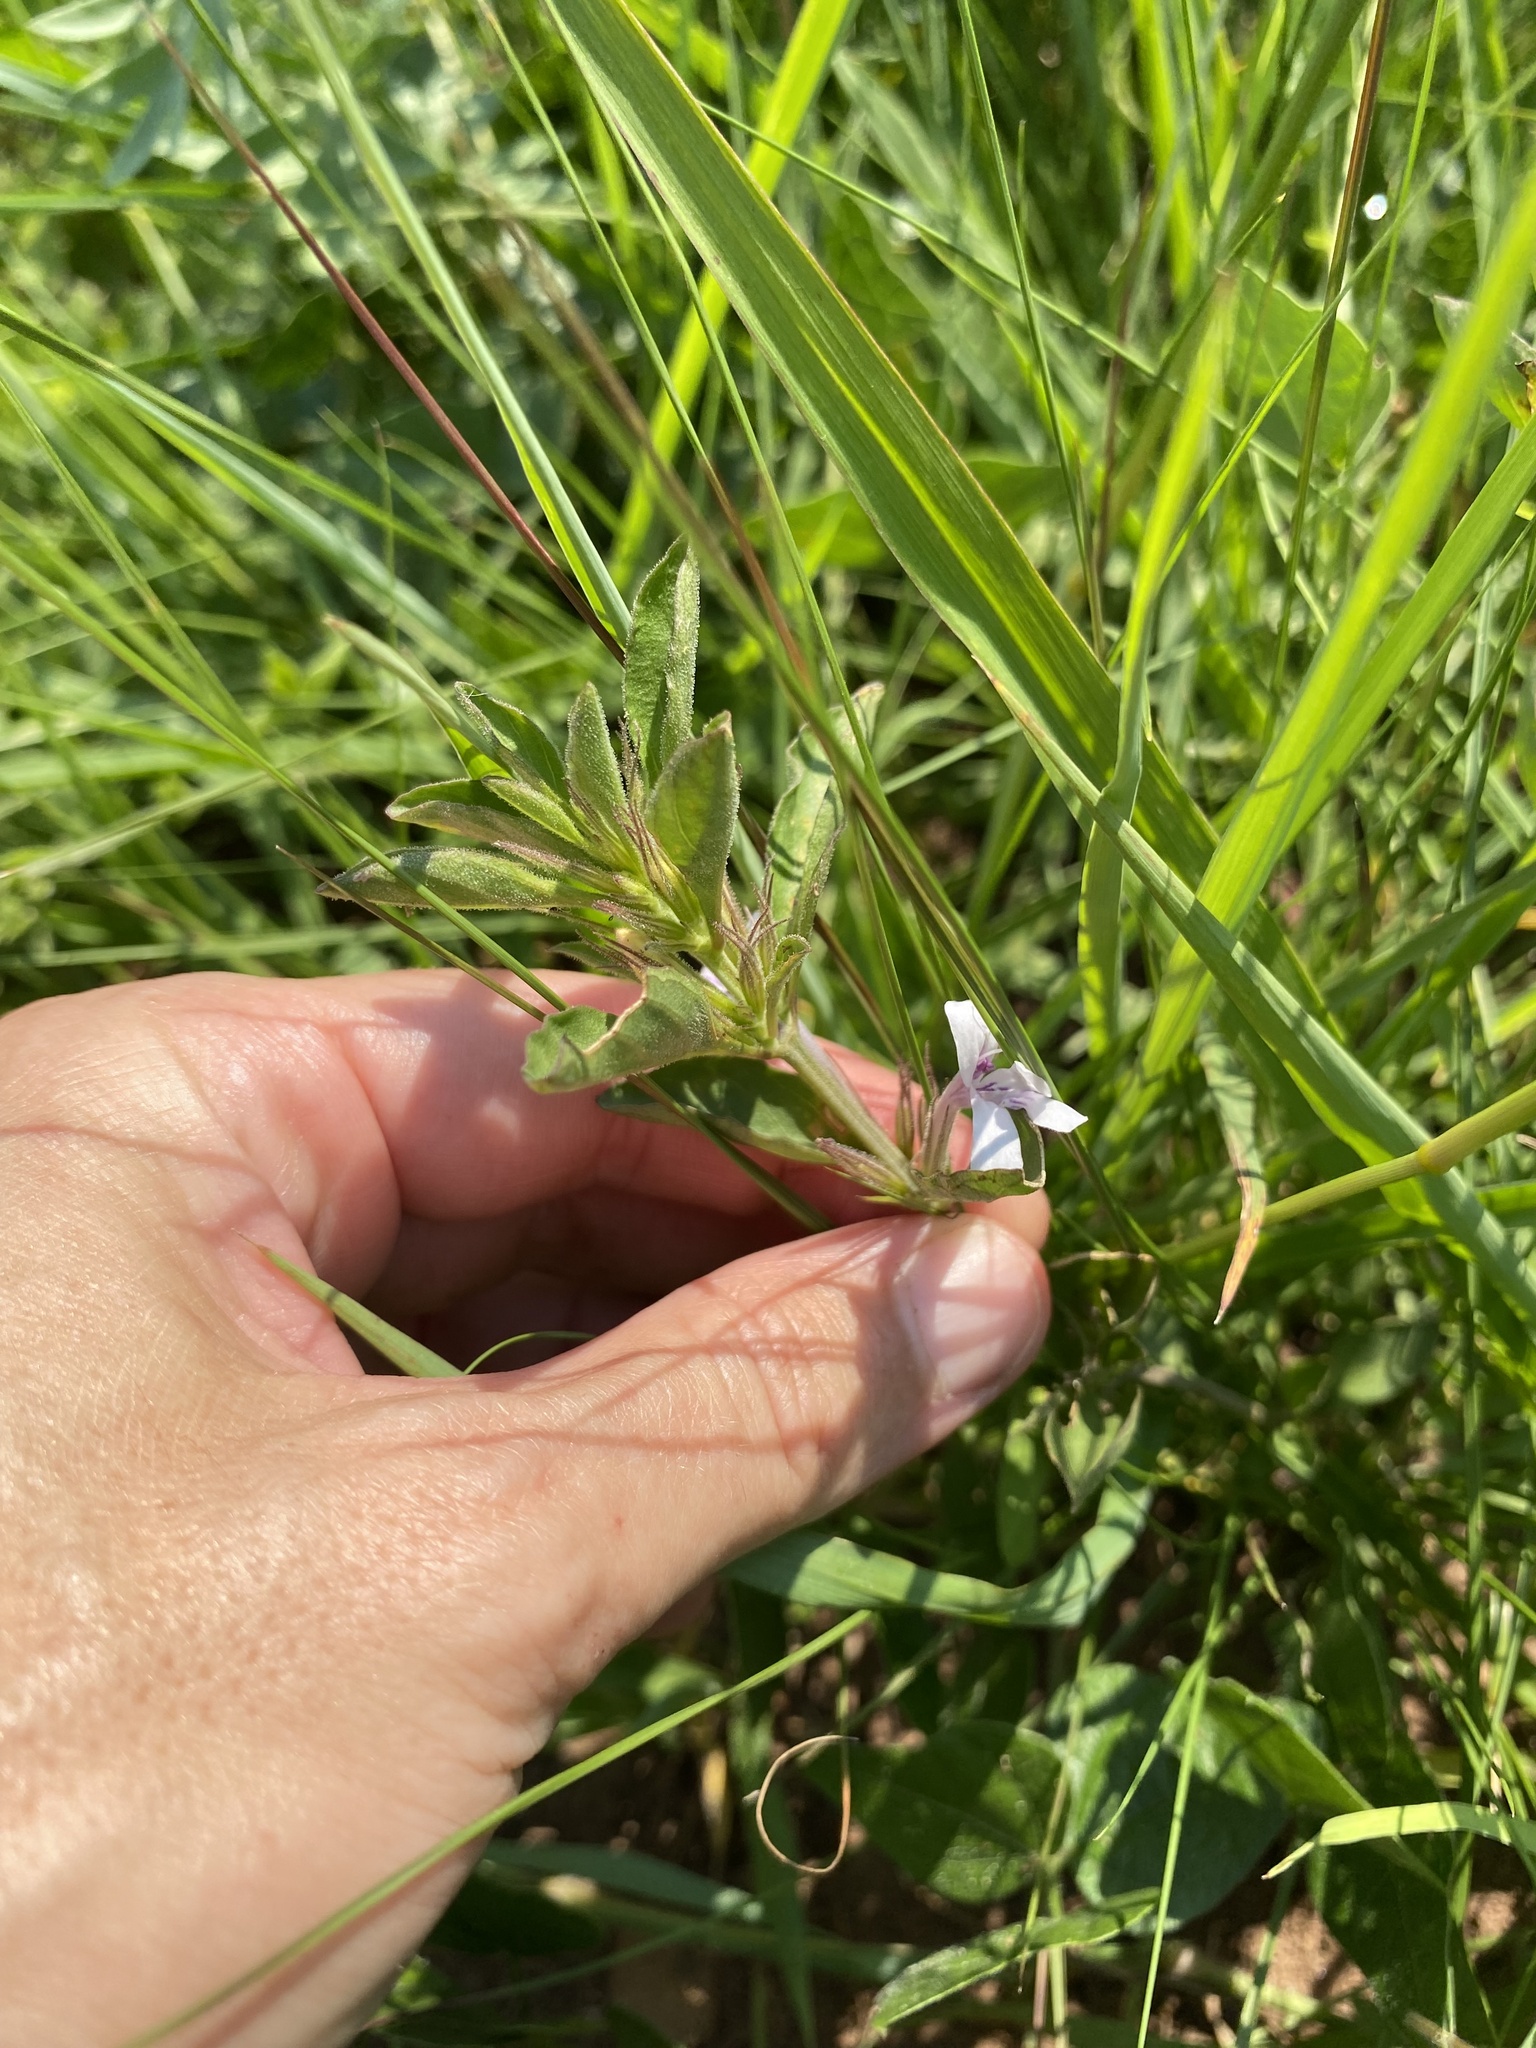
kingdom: Plantae
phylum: Tracheophyta
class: Magnoliopsida
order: Lamiales
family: Acanthaceae
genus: Dyschoriste
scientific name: Dyschoriste setigera
